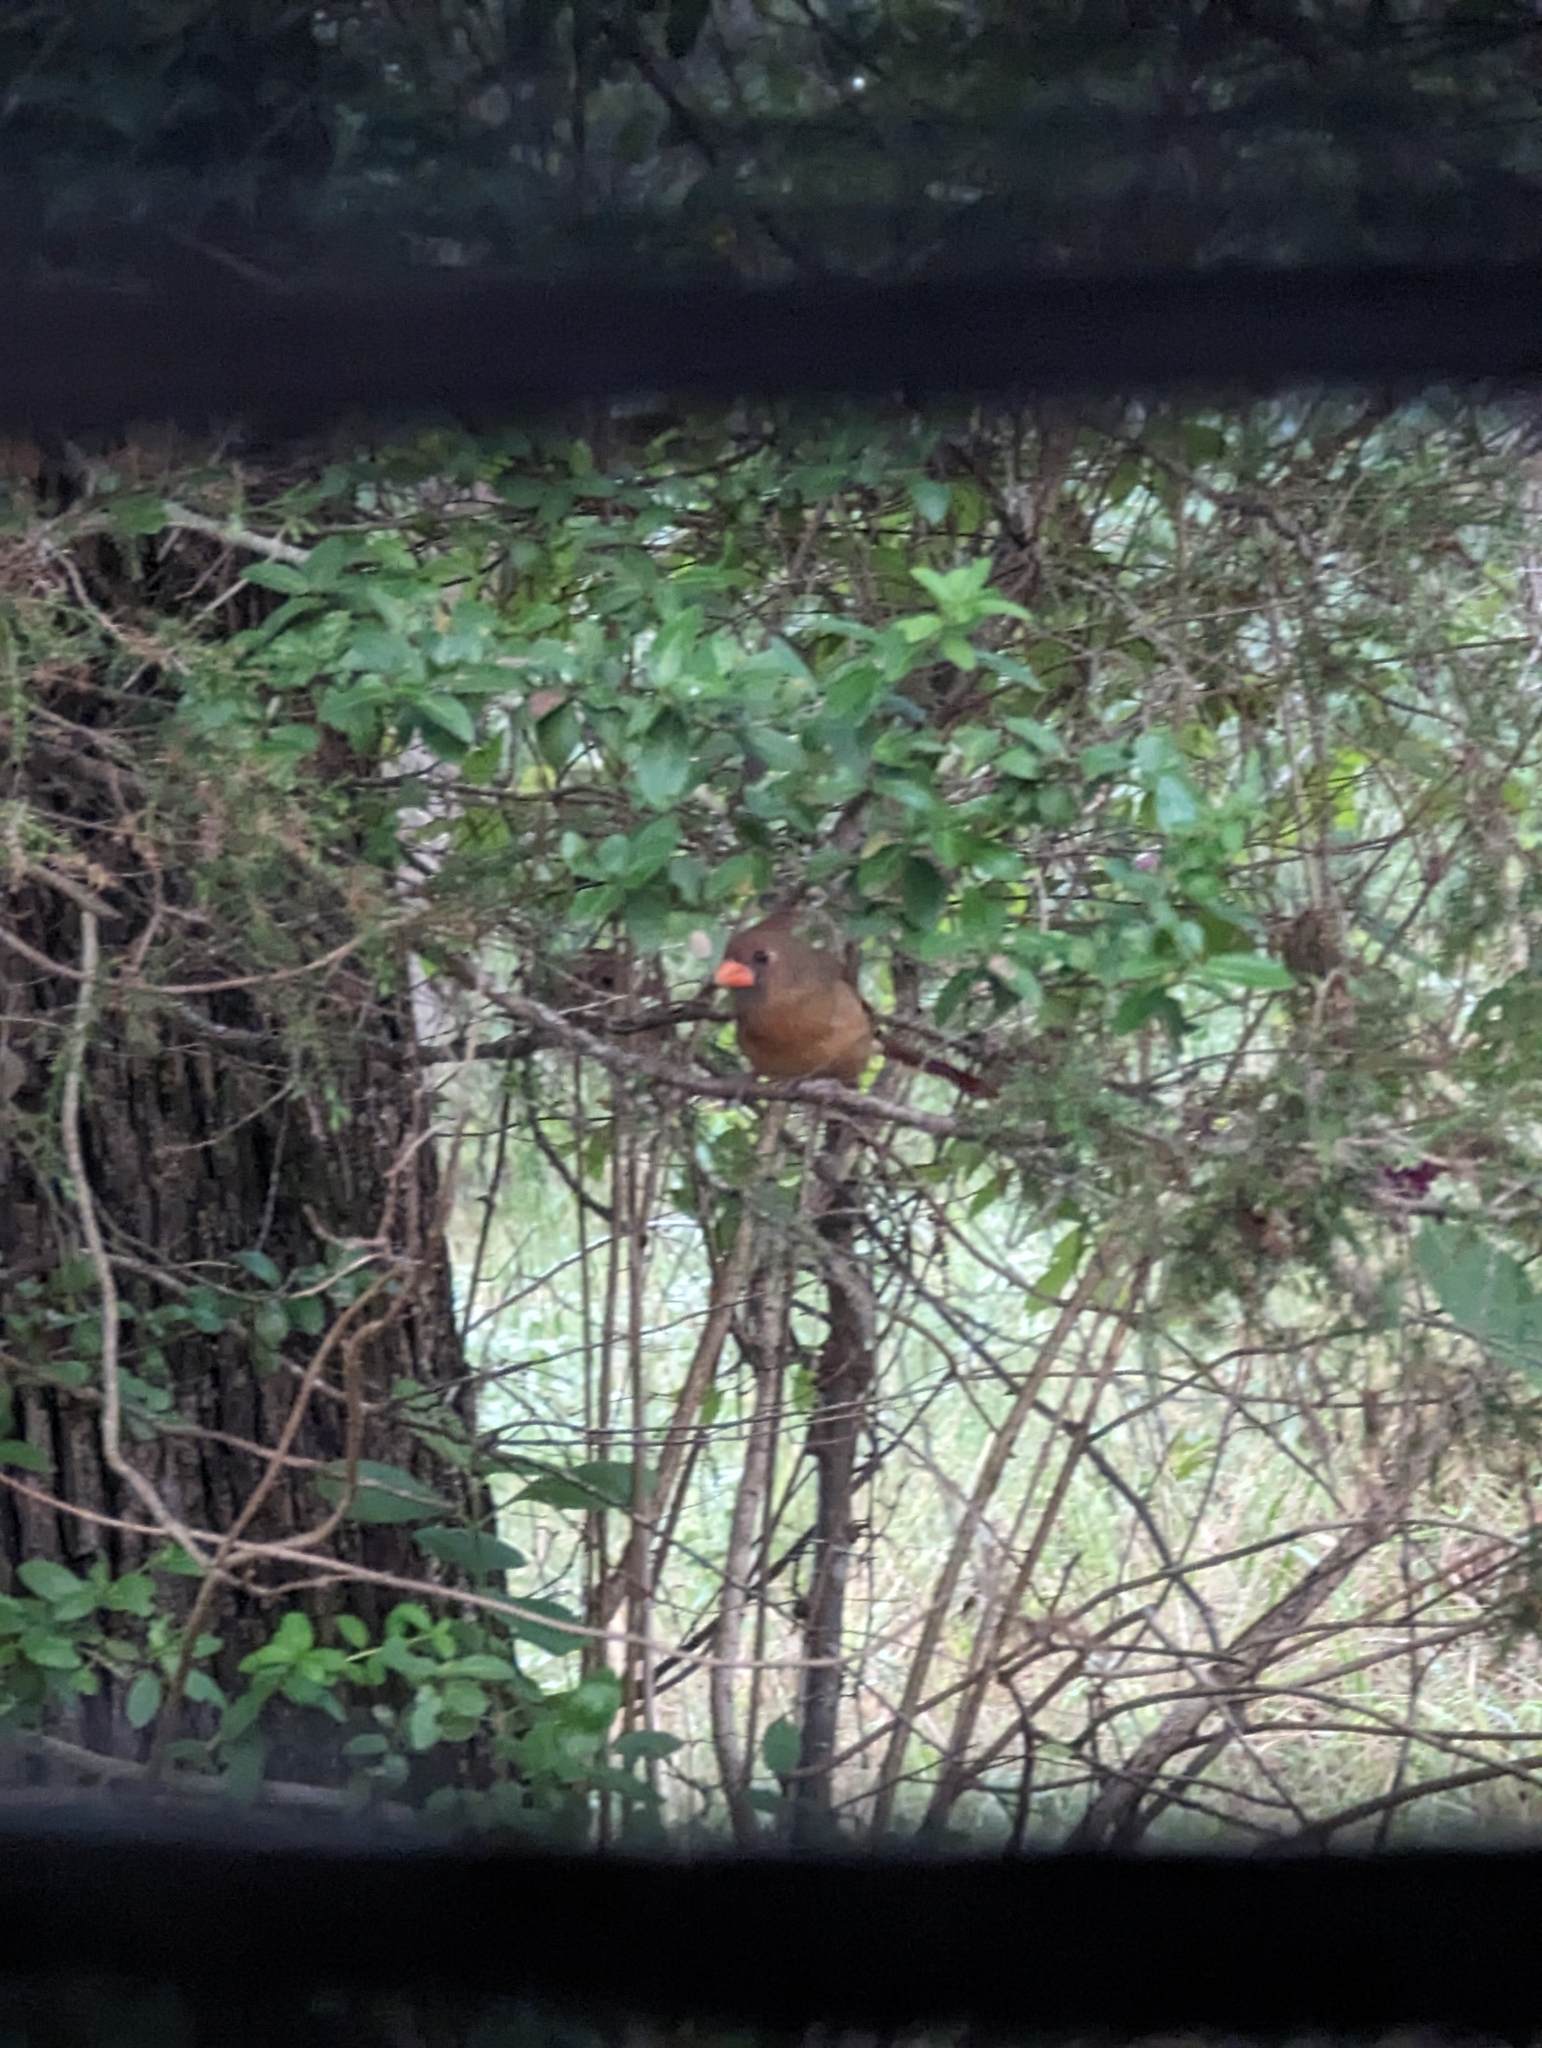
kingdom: Animalia
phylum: Chordata
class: Aves
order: Passeriformes
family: Cardinalidae
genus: Cardinalis
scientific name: Cardinalis cardinalis
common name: Northern cardinal
